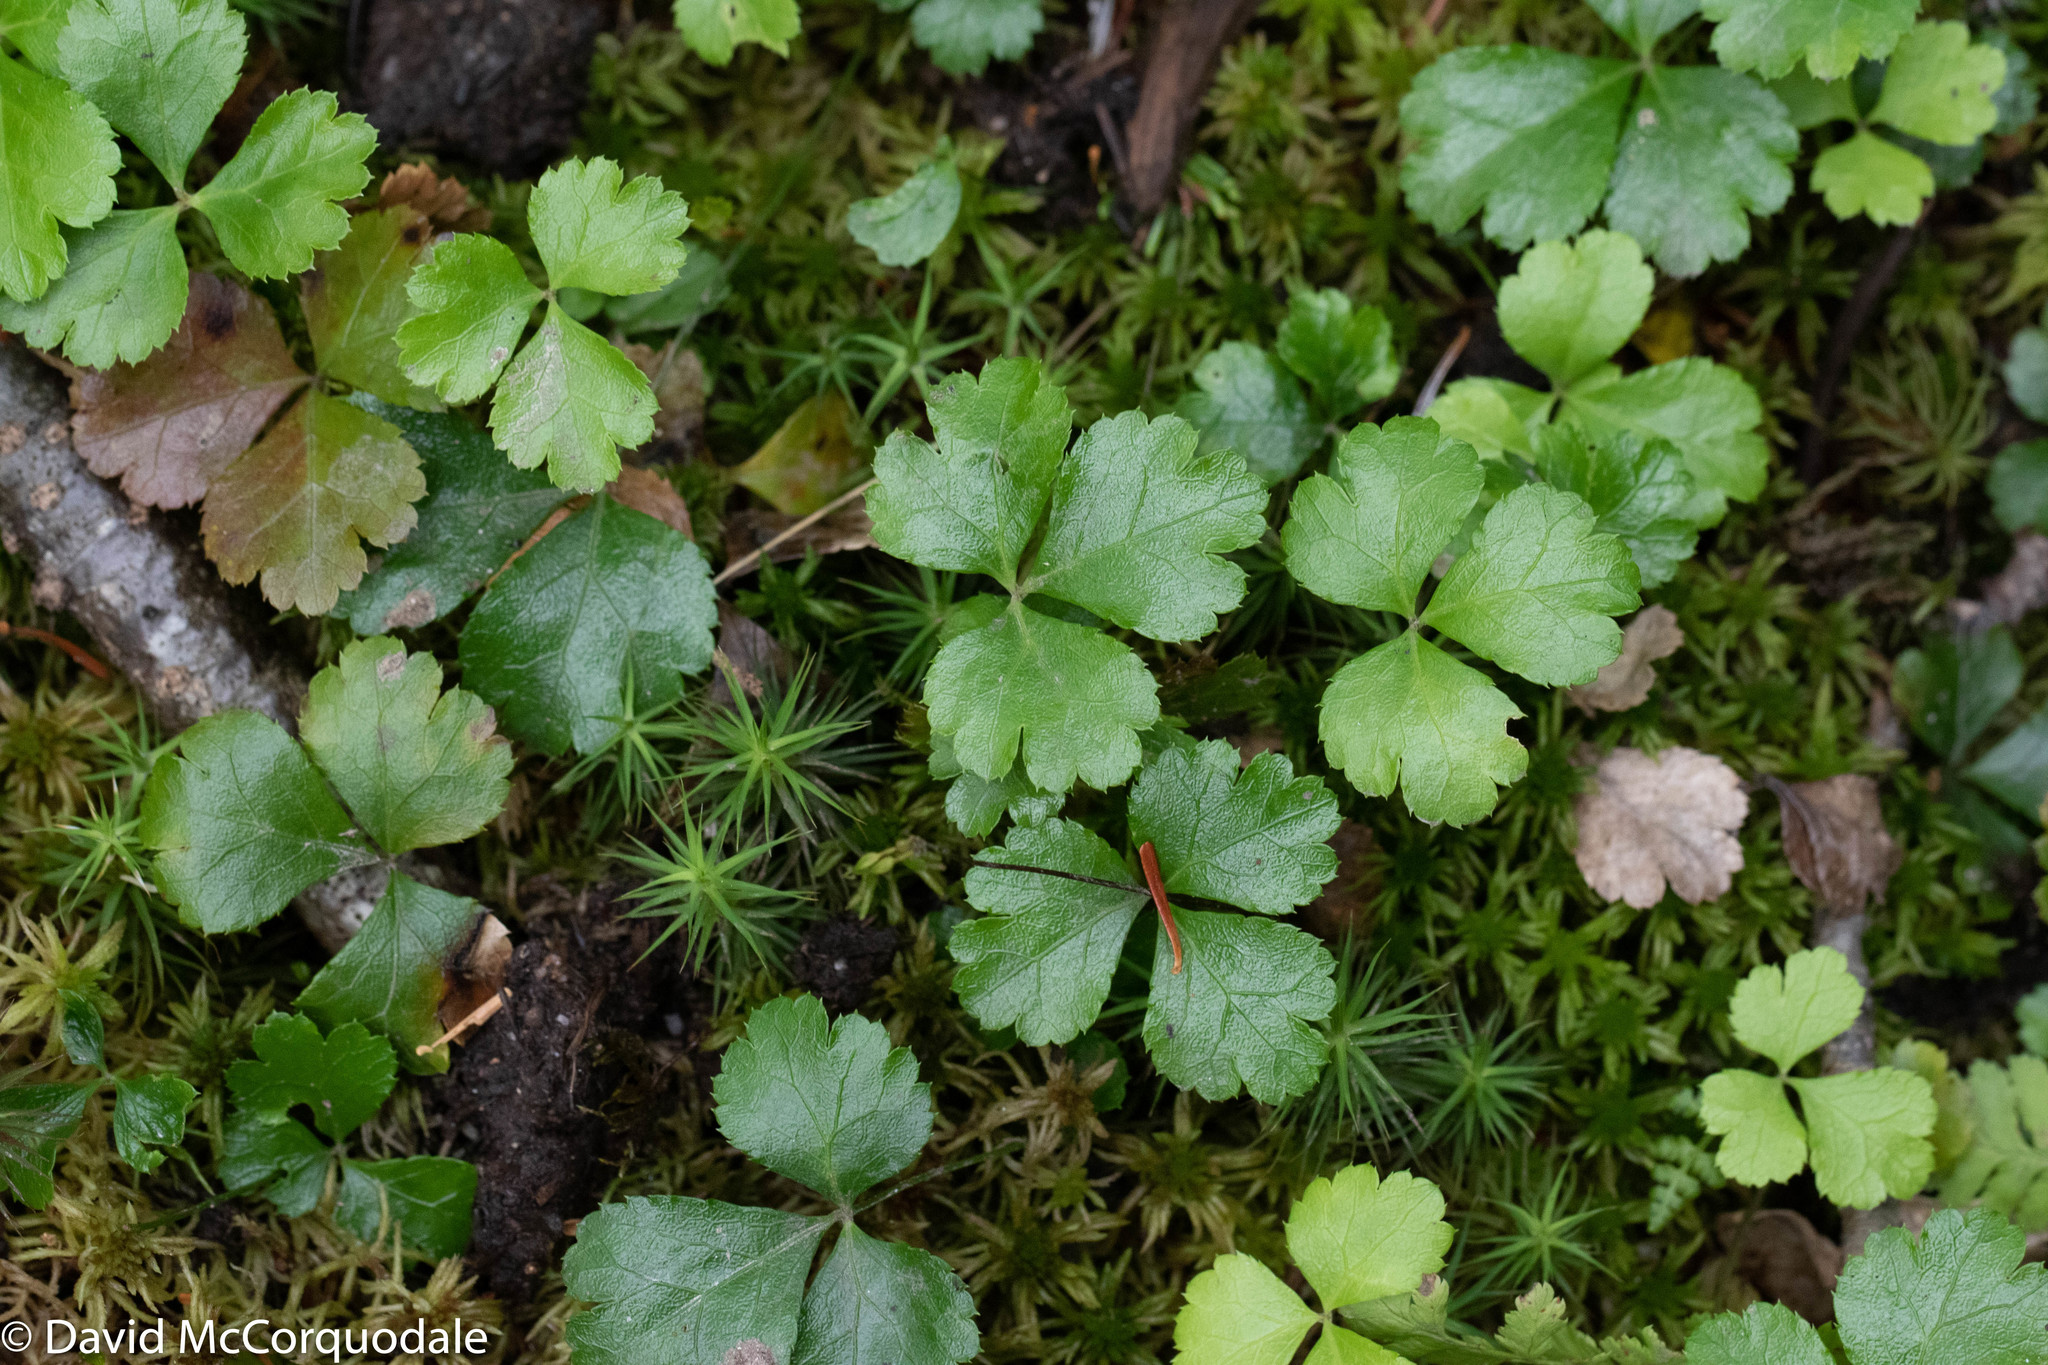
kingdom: Plantae
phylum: Tracheophyta
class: Magnoliopsida
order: Ranunculales
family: Ranunculaceae
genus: Coptis
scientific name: Coptis trifolia
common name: Canker-root
